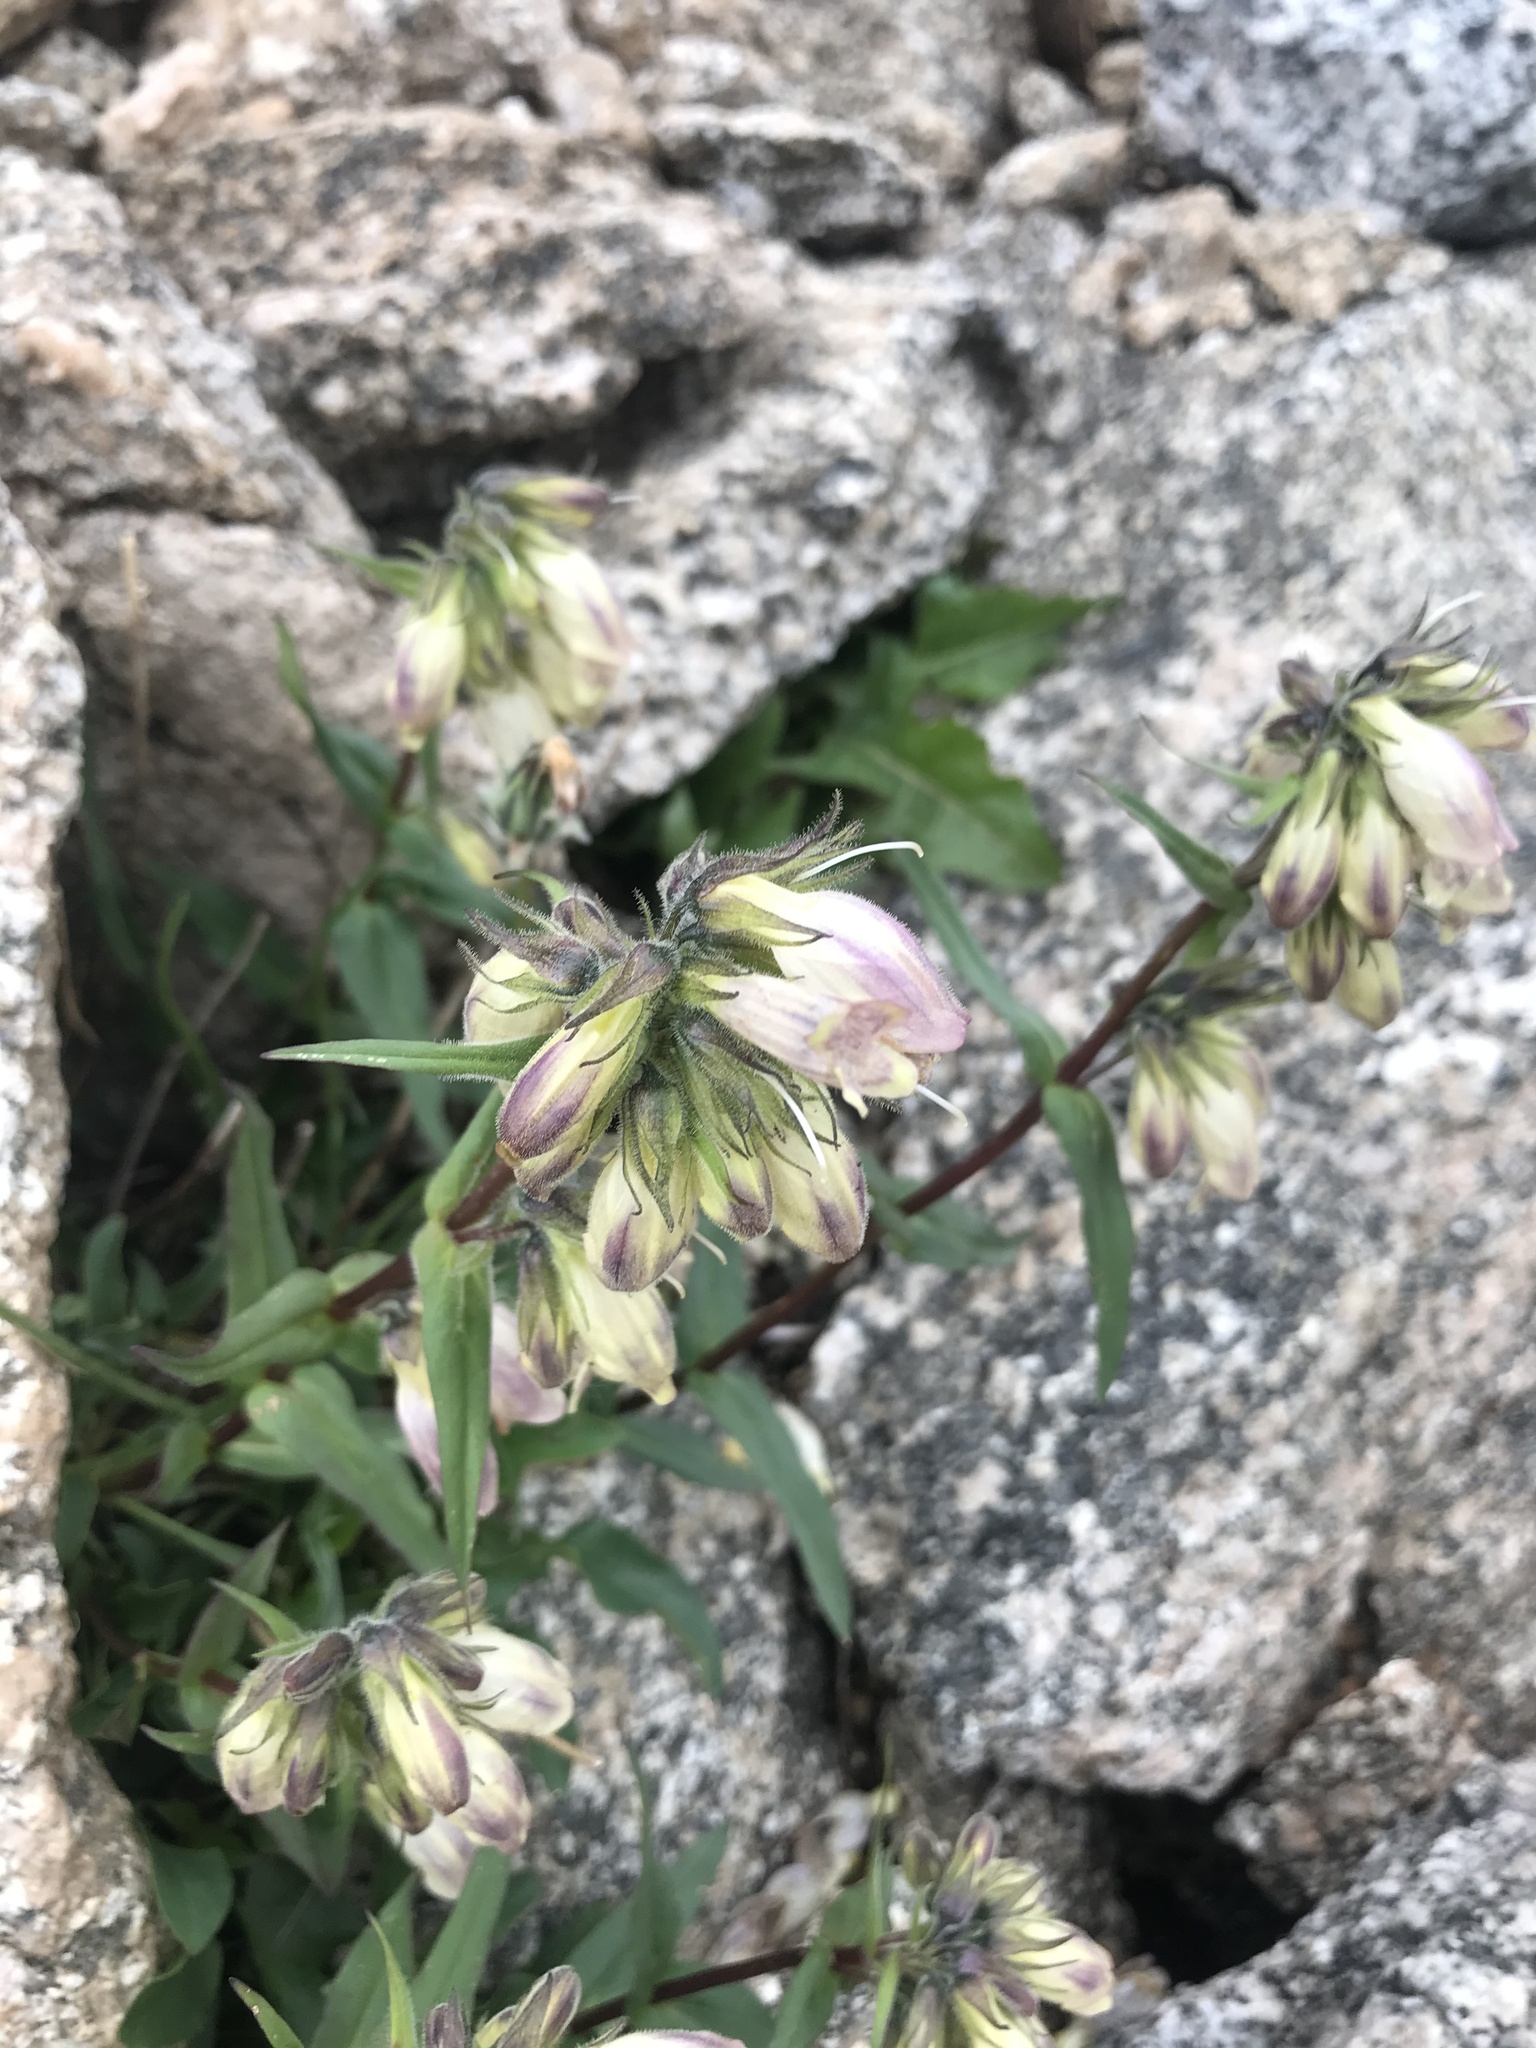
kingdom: Plantae
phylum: Tracheophyta
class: Magnoliopsida
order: Lamiales
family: Plantaginaceae
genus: Penstemon
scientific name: Penstemon whippleanus
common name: Whipple's penstemon
